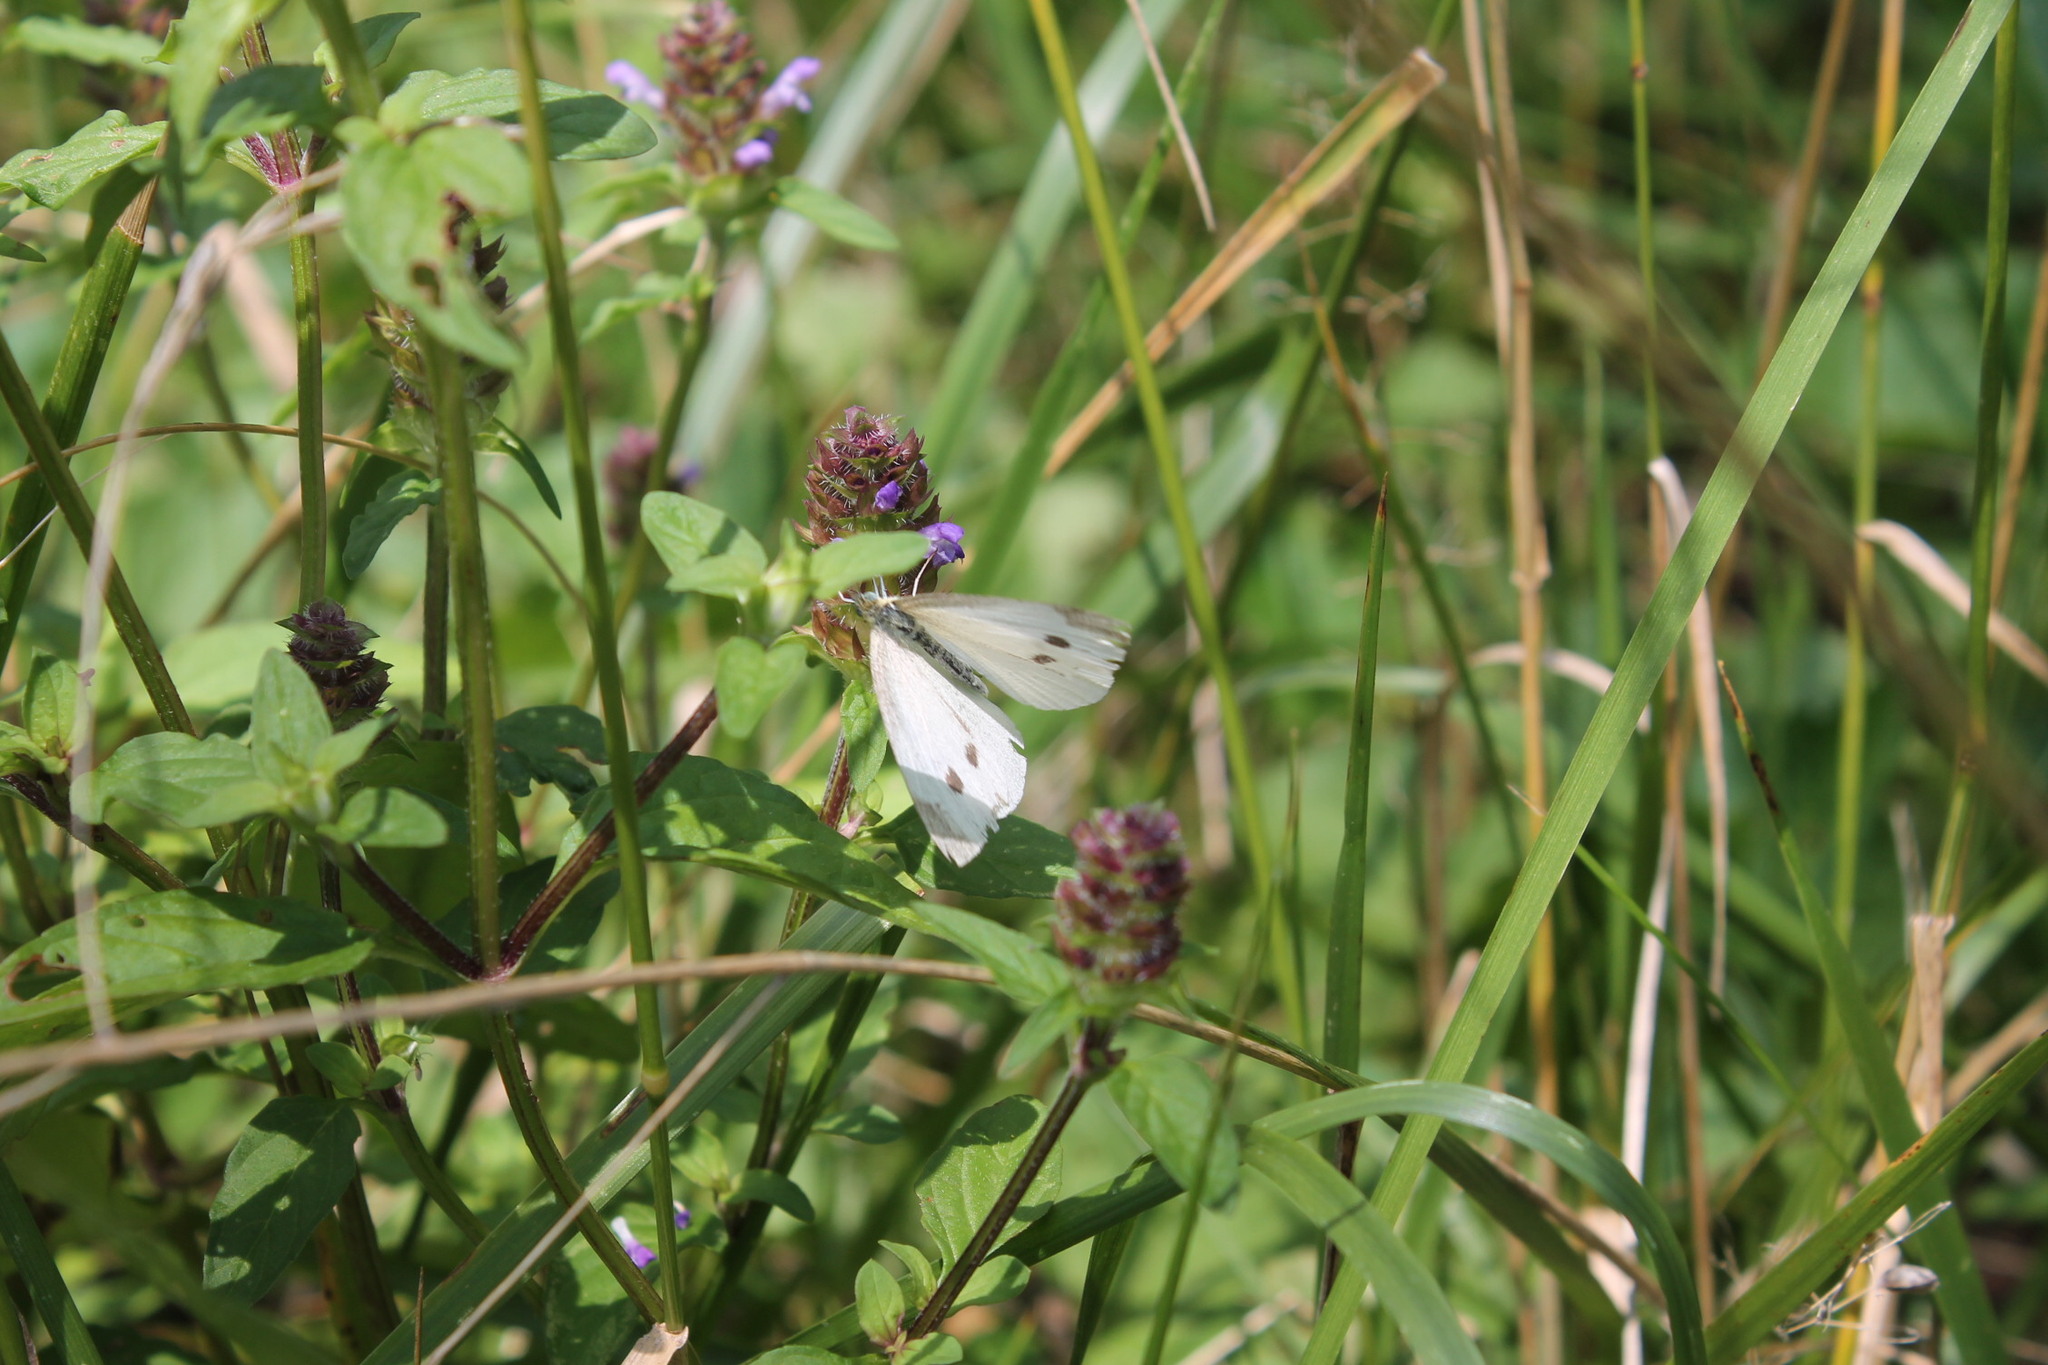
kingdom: Animalia
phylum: Arthropoda
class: Insecta
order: Lepidoptera
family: Pieridae
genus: Pieris
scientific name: Pieris rapae
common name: Small white
